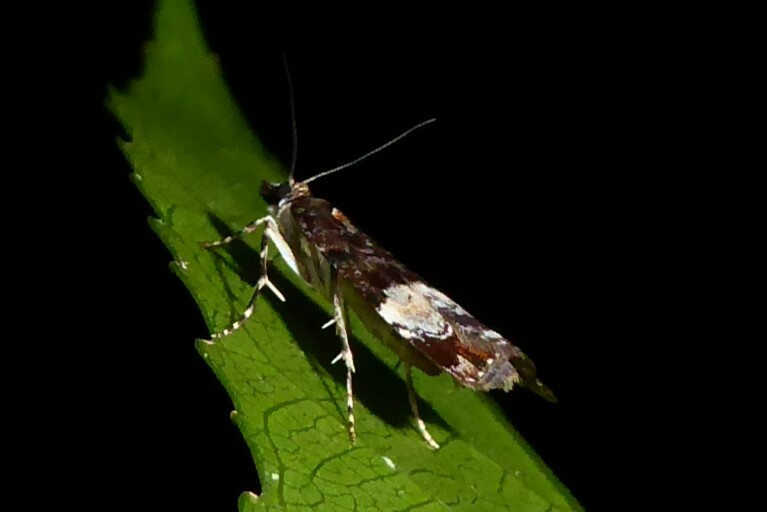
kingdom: Animalia
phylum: Arthropoda
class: Insecta
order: Lepidoptera
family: Crambidae
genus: Scoparia
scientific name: Scoparia minusculalis
